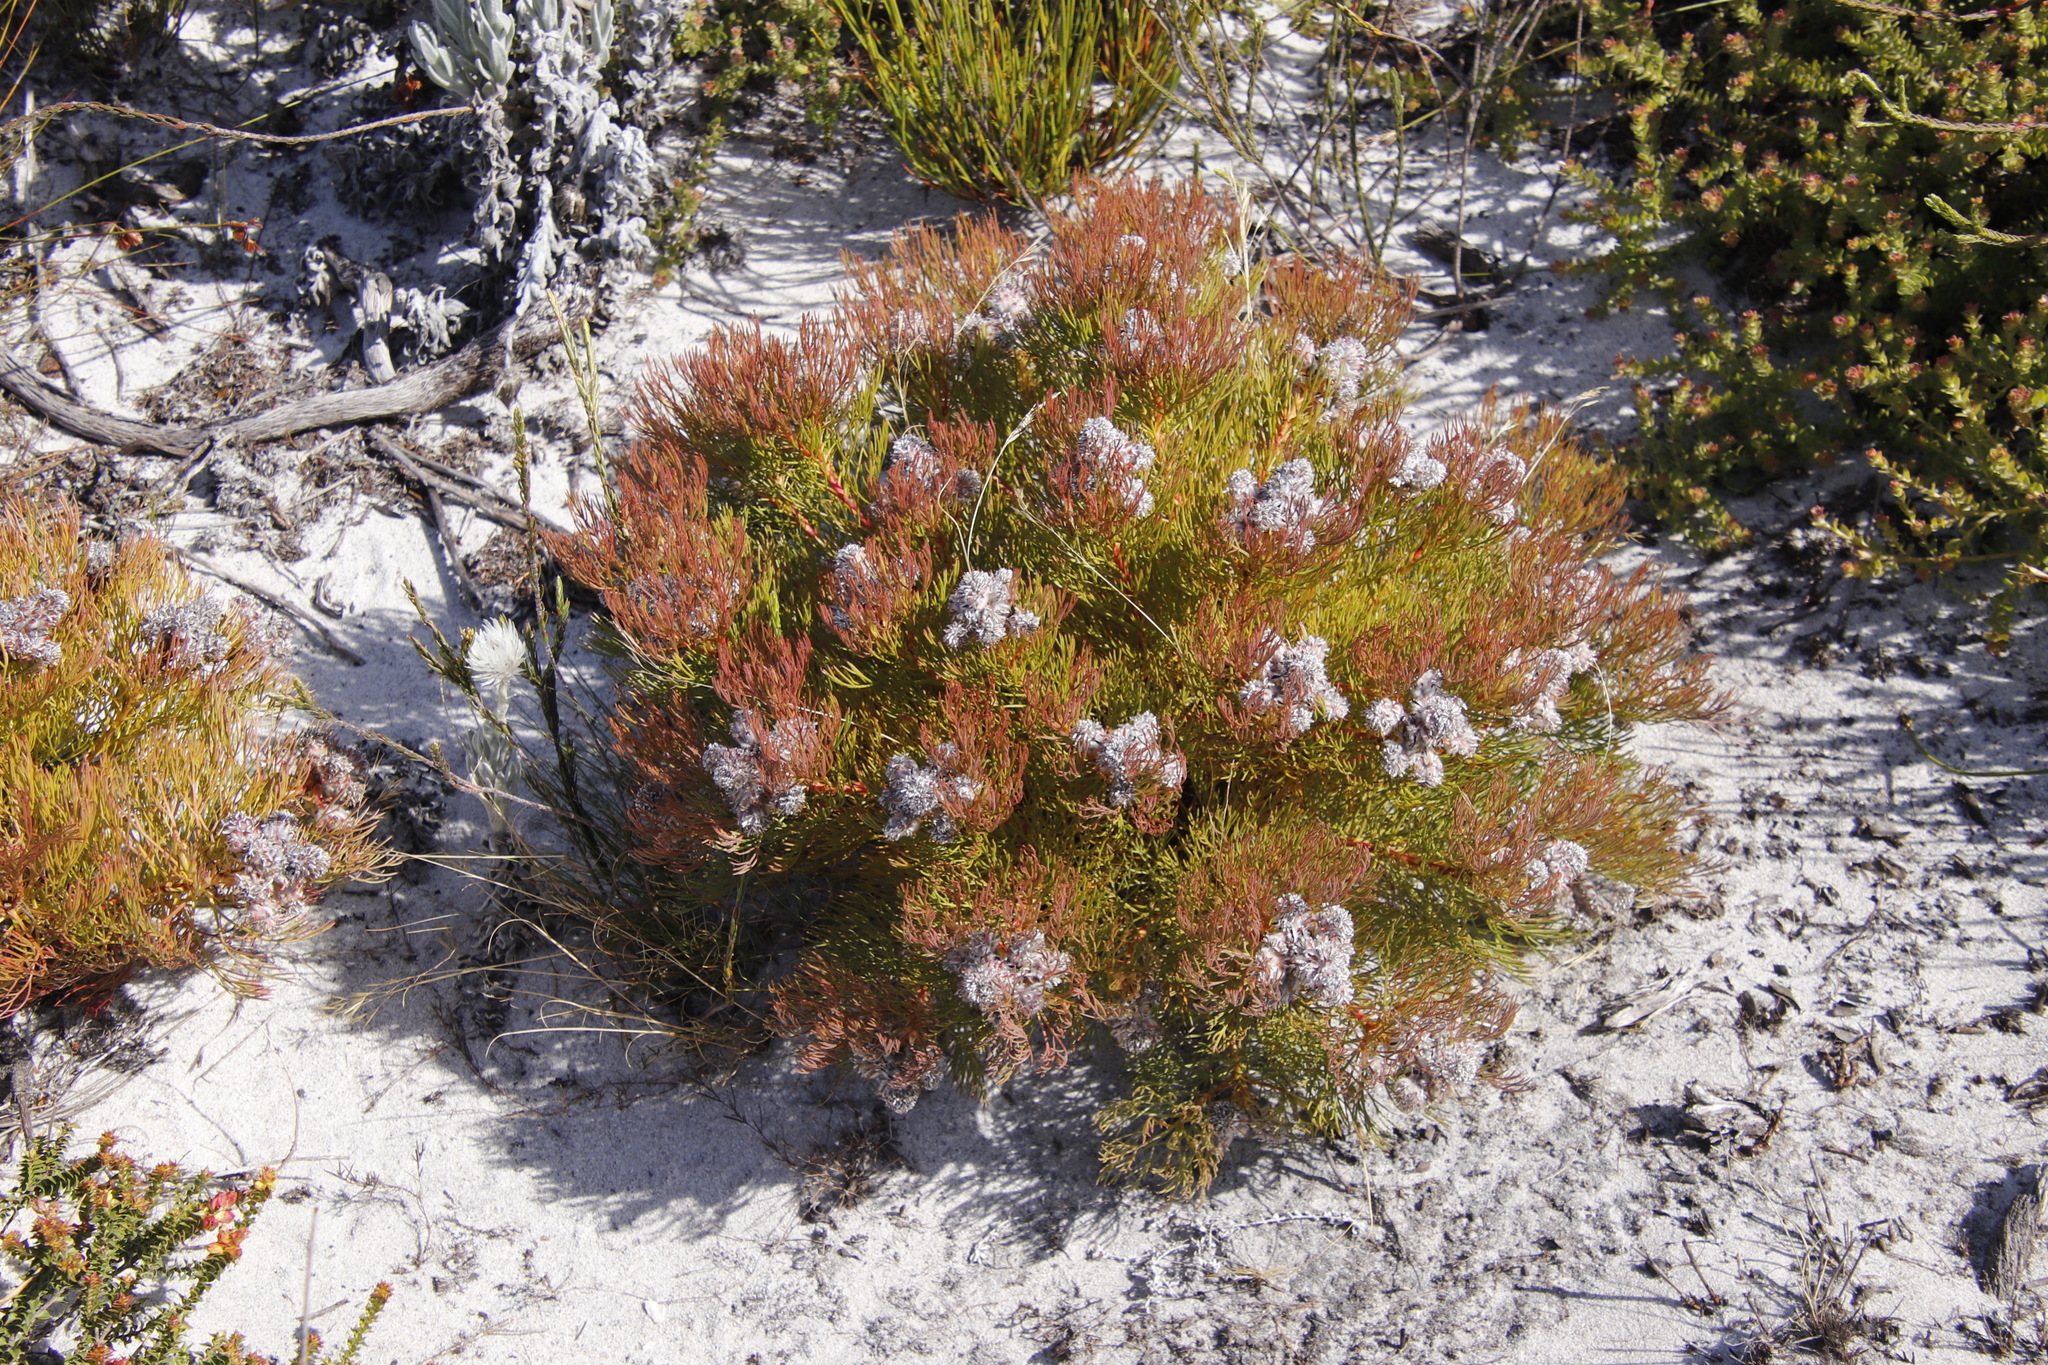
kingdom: Plantae
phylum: Tracheophyta
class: Magnoliopsida
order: Proteales
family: Proteaceae
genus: Serruria
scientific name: Serruria villosa
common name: Golden spiderhead
